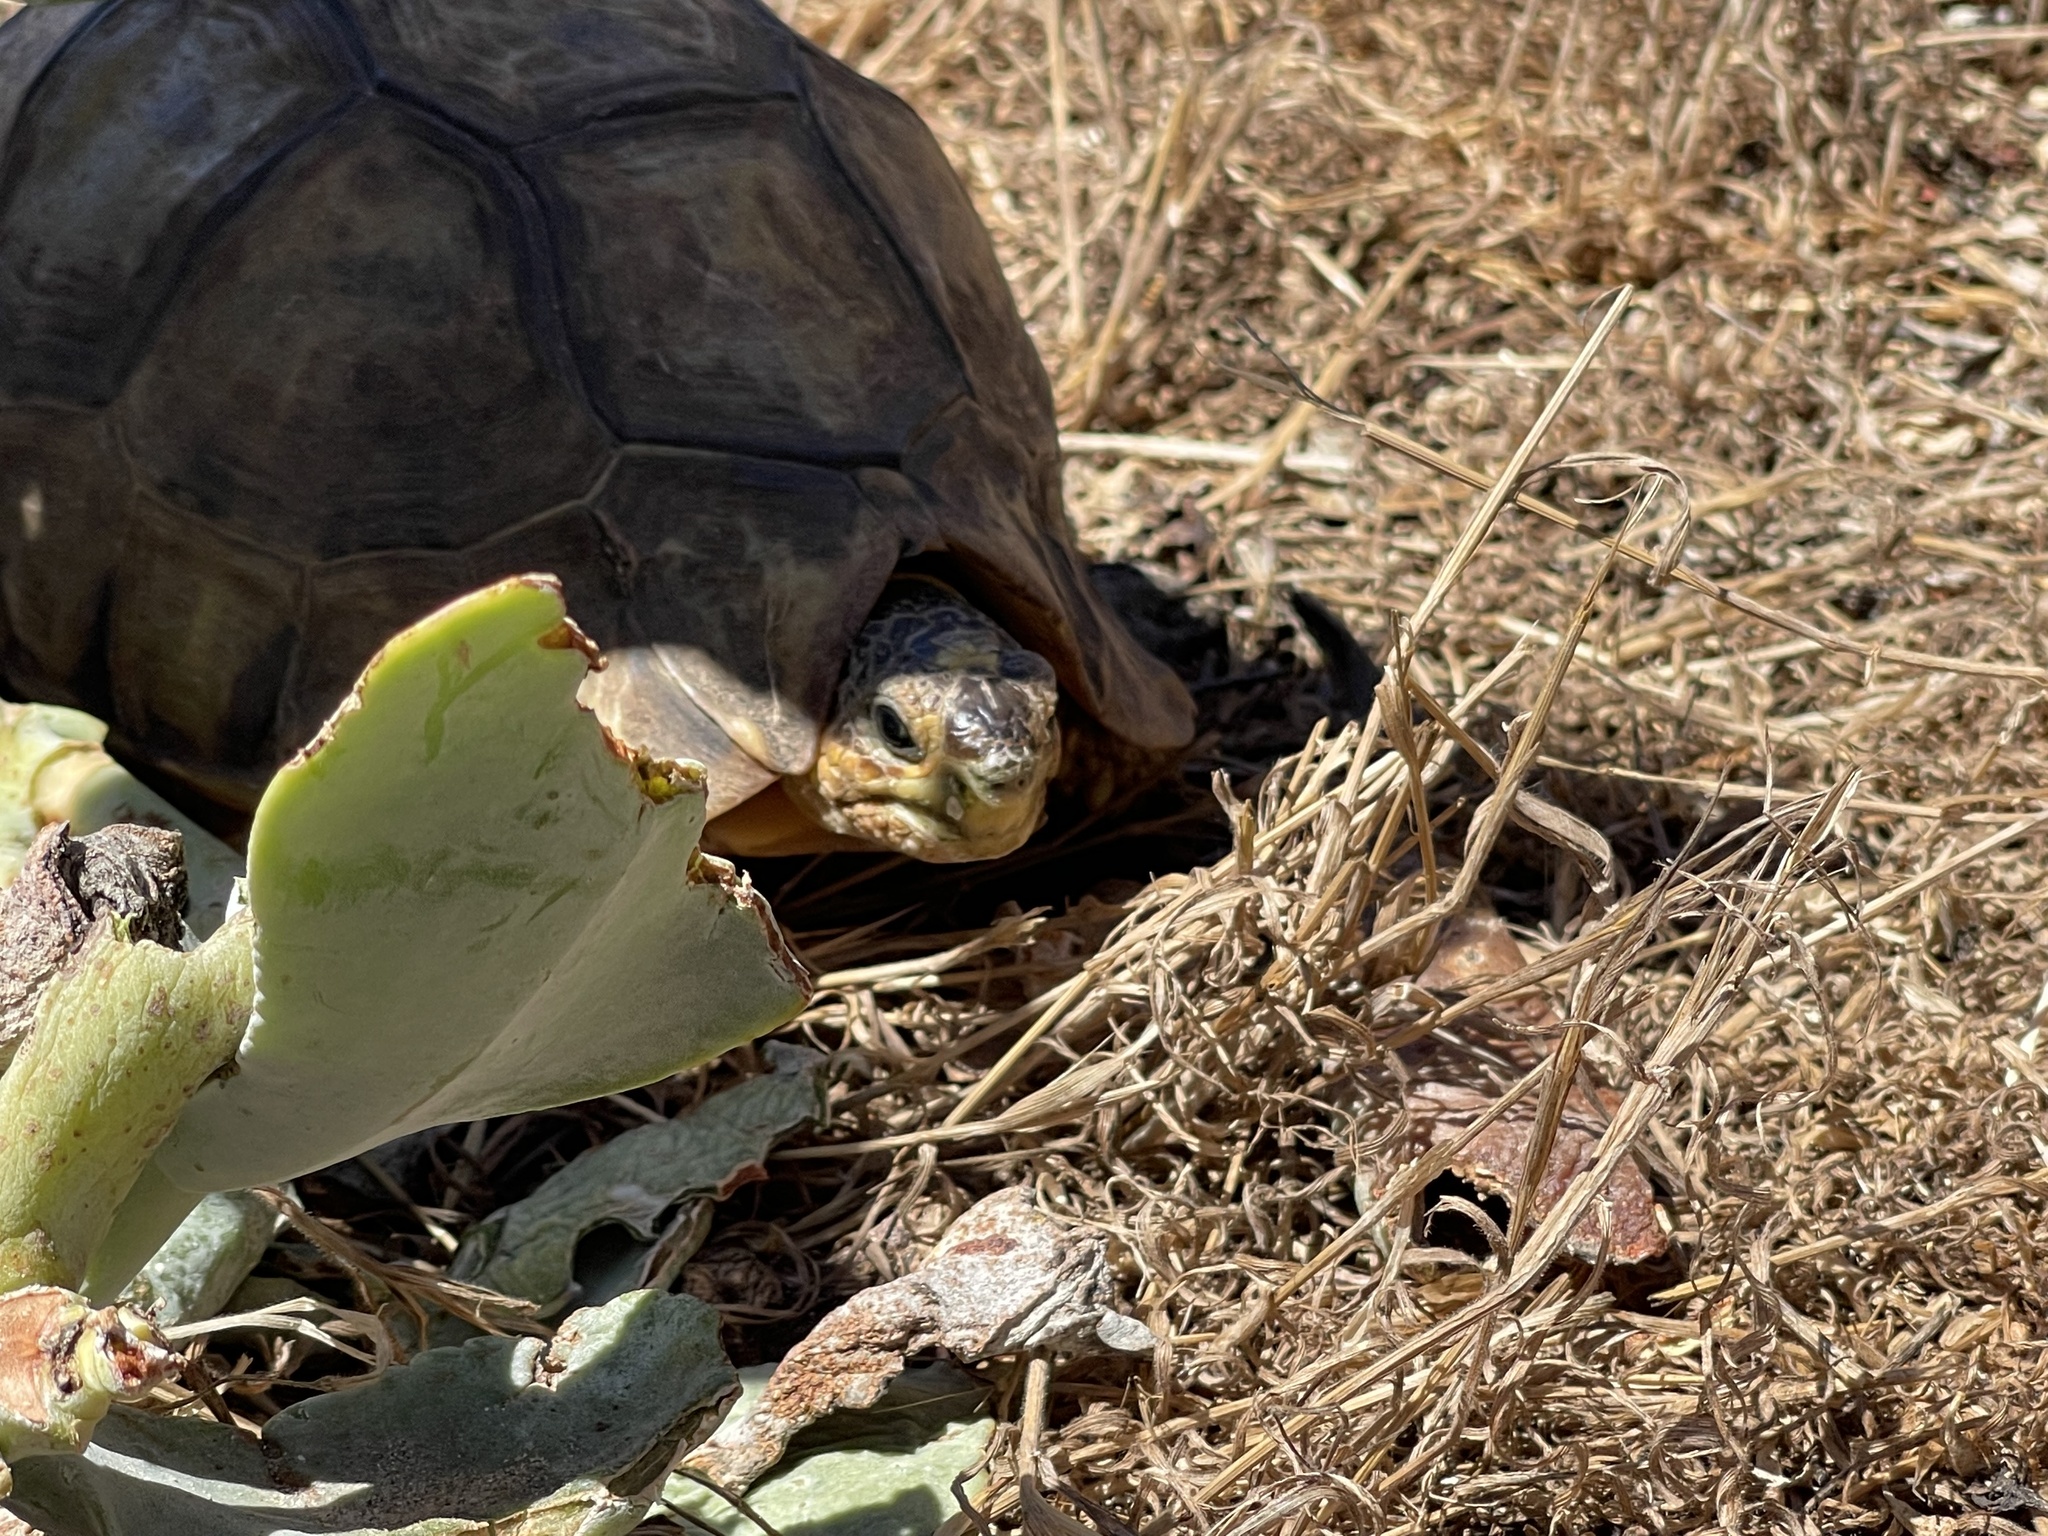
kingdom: Animalia
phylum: Chordata
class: Testudines
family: Testudinidae
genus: Chersina
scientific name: Chersina angulata
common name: South african bowsprit tortoise
